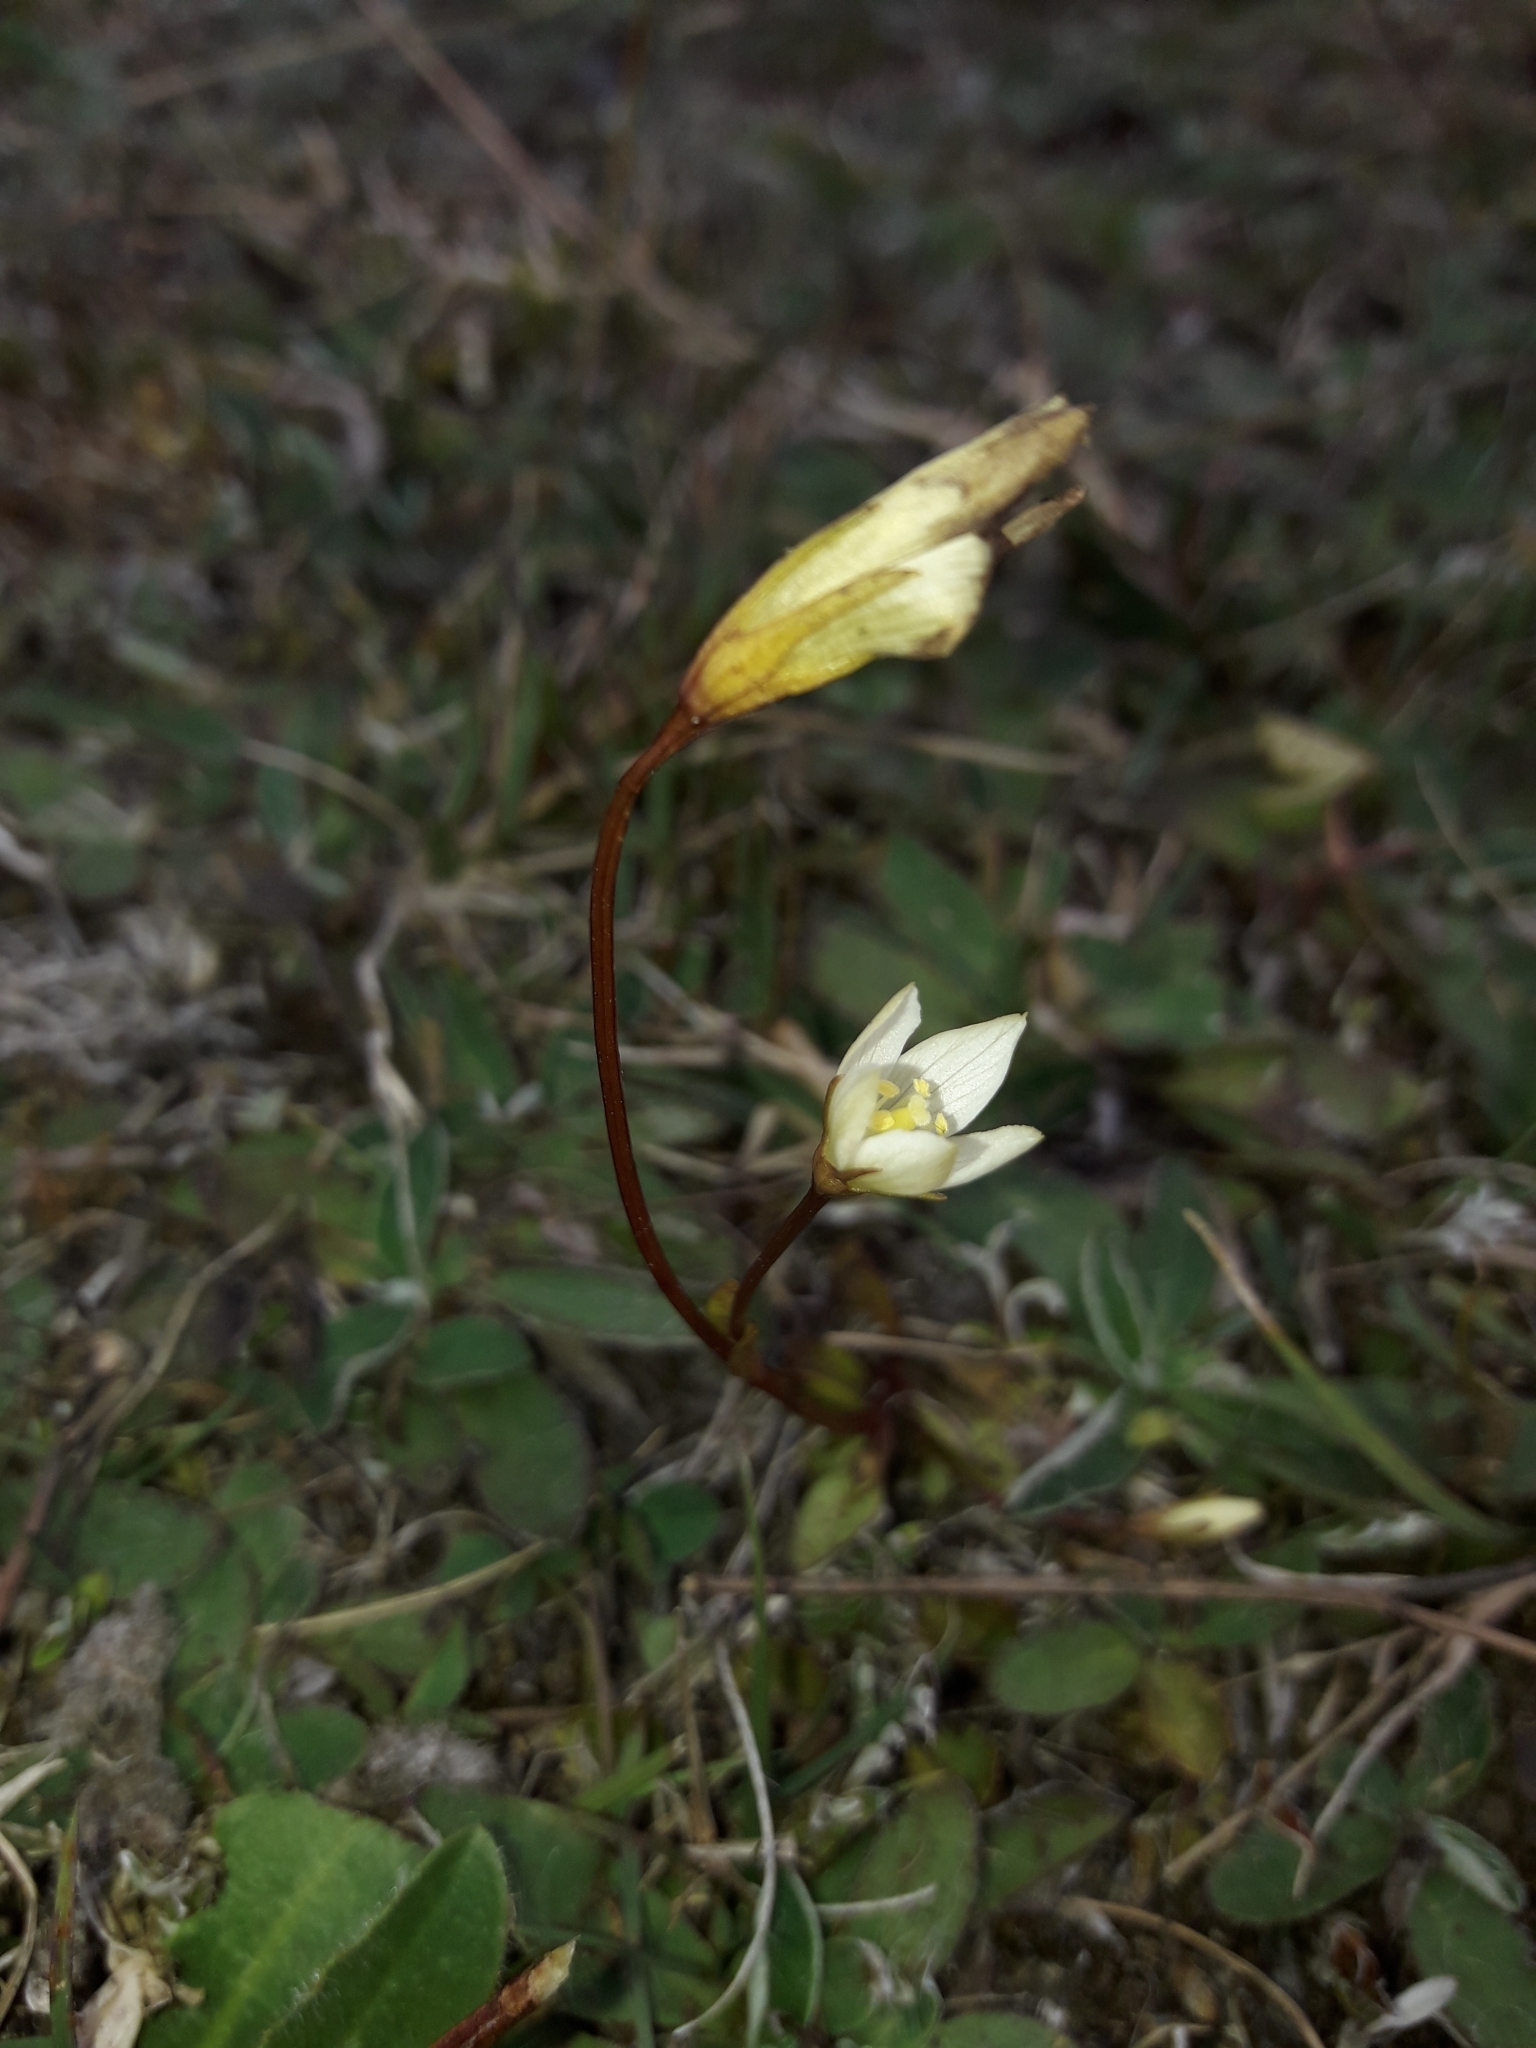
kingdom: Plantae
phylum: Tracheophyta
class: Magnoliopsida
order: Gentianales
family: Gentianaceae
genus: Gentianella
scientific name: Gentianella bellidifolia
